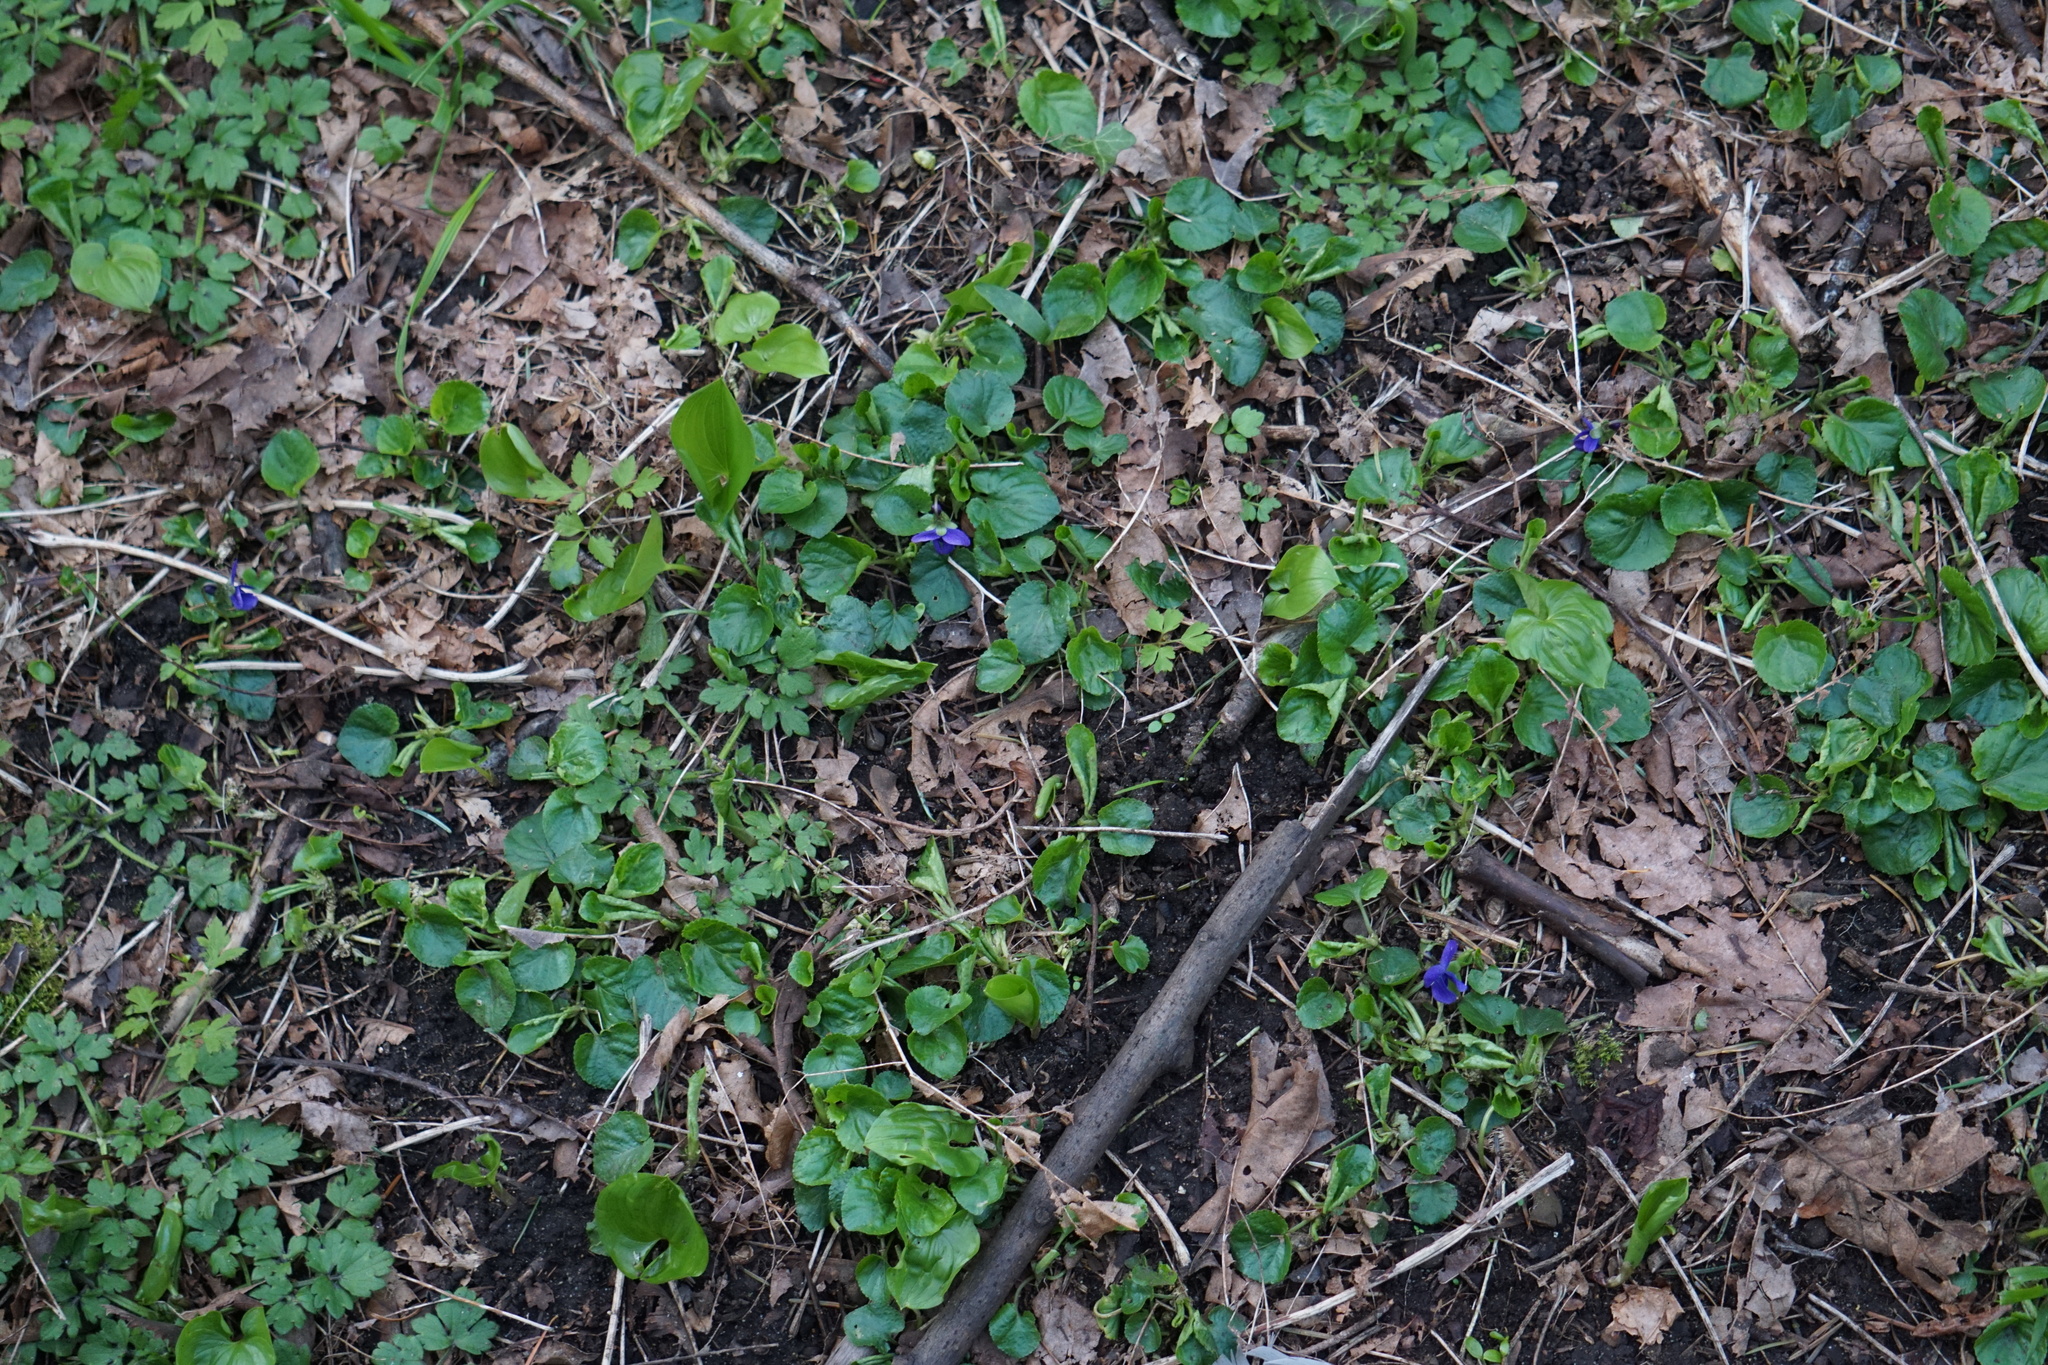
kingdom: Plantae
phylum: Tracheophyta
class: Magnoliopsida
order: Malpighiales
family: Violaceae
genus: Viola
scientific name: Viola odorata
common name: Sweet violet
